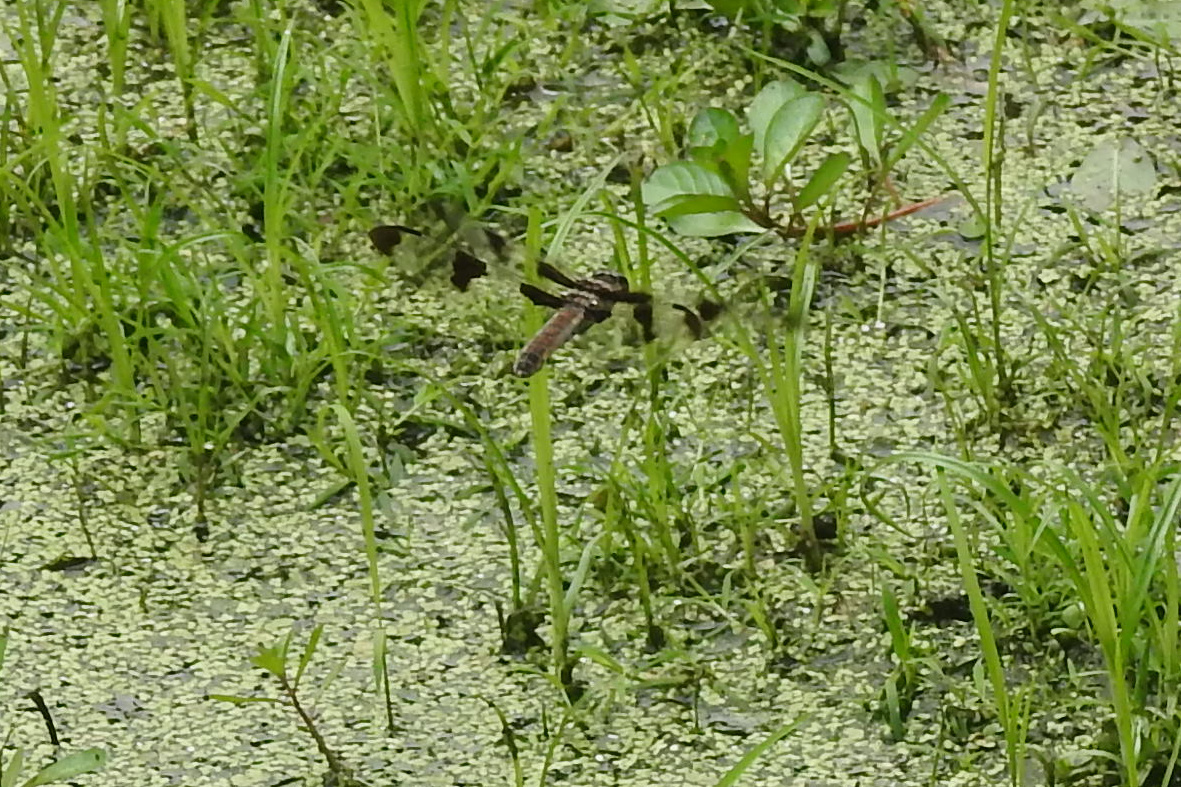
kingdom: Animalia
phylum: Arthropoda
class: Insecta
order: Odonata
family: Libellulidae
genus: Libellula
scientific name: Libellula pulchella
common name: Twelve-spotted skimmer
